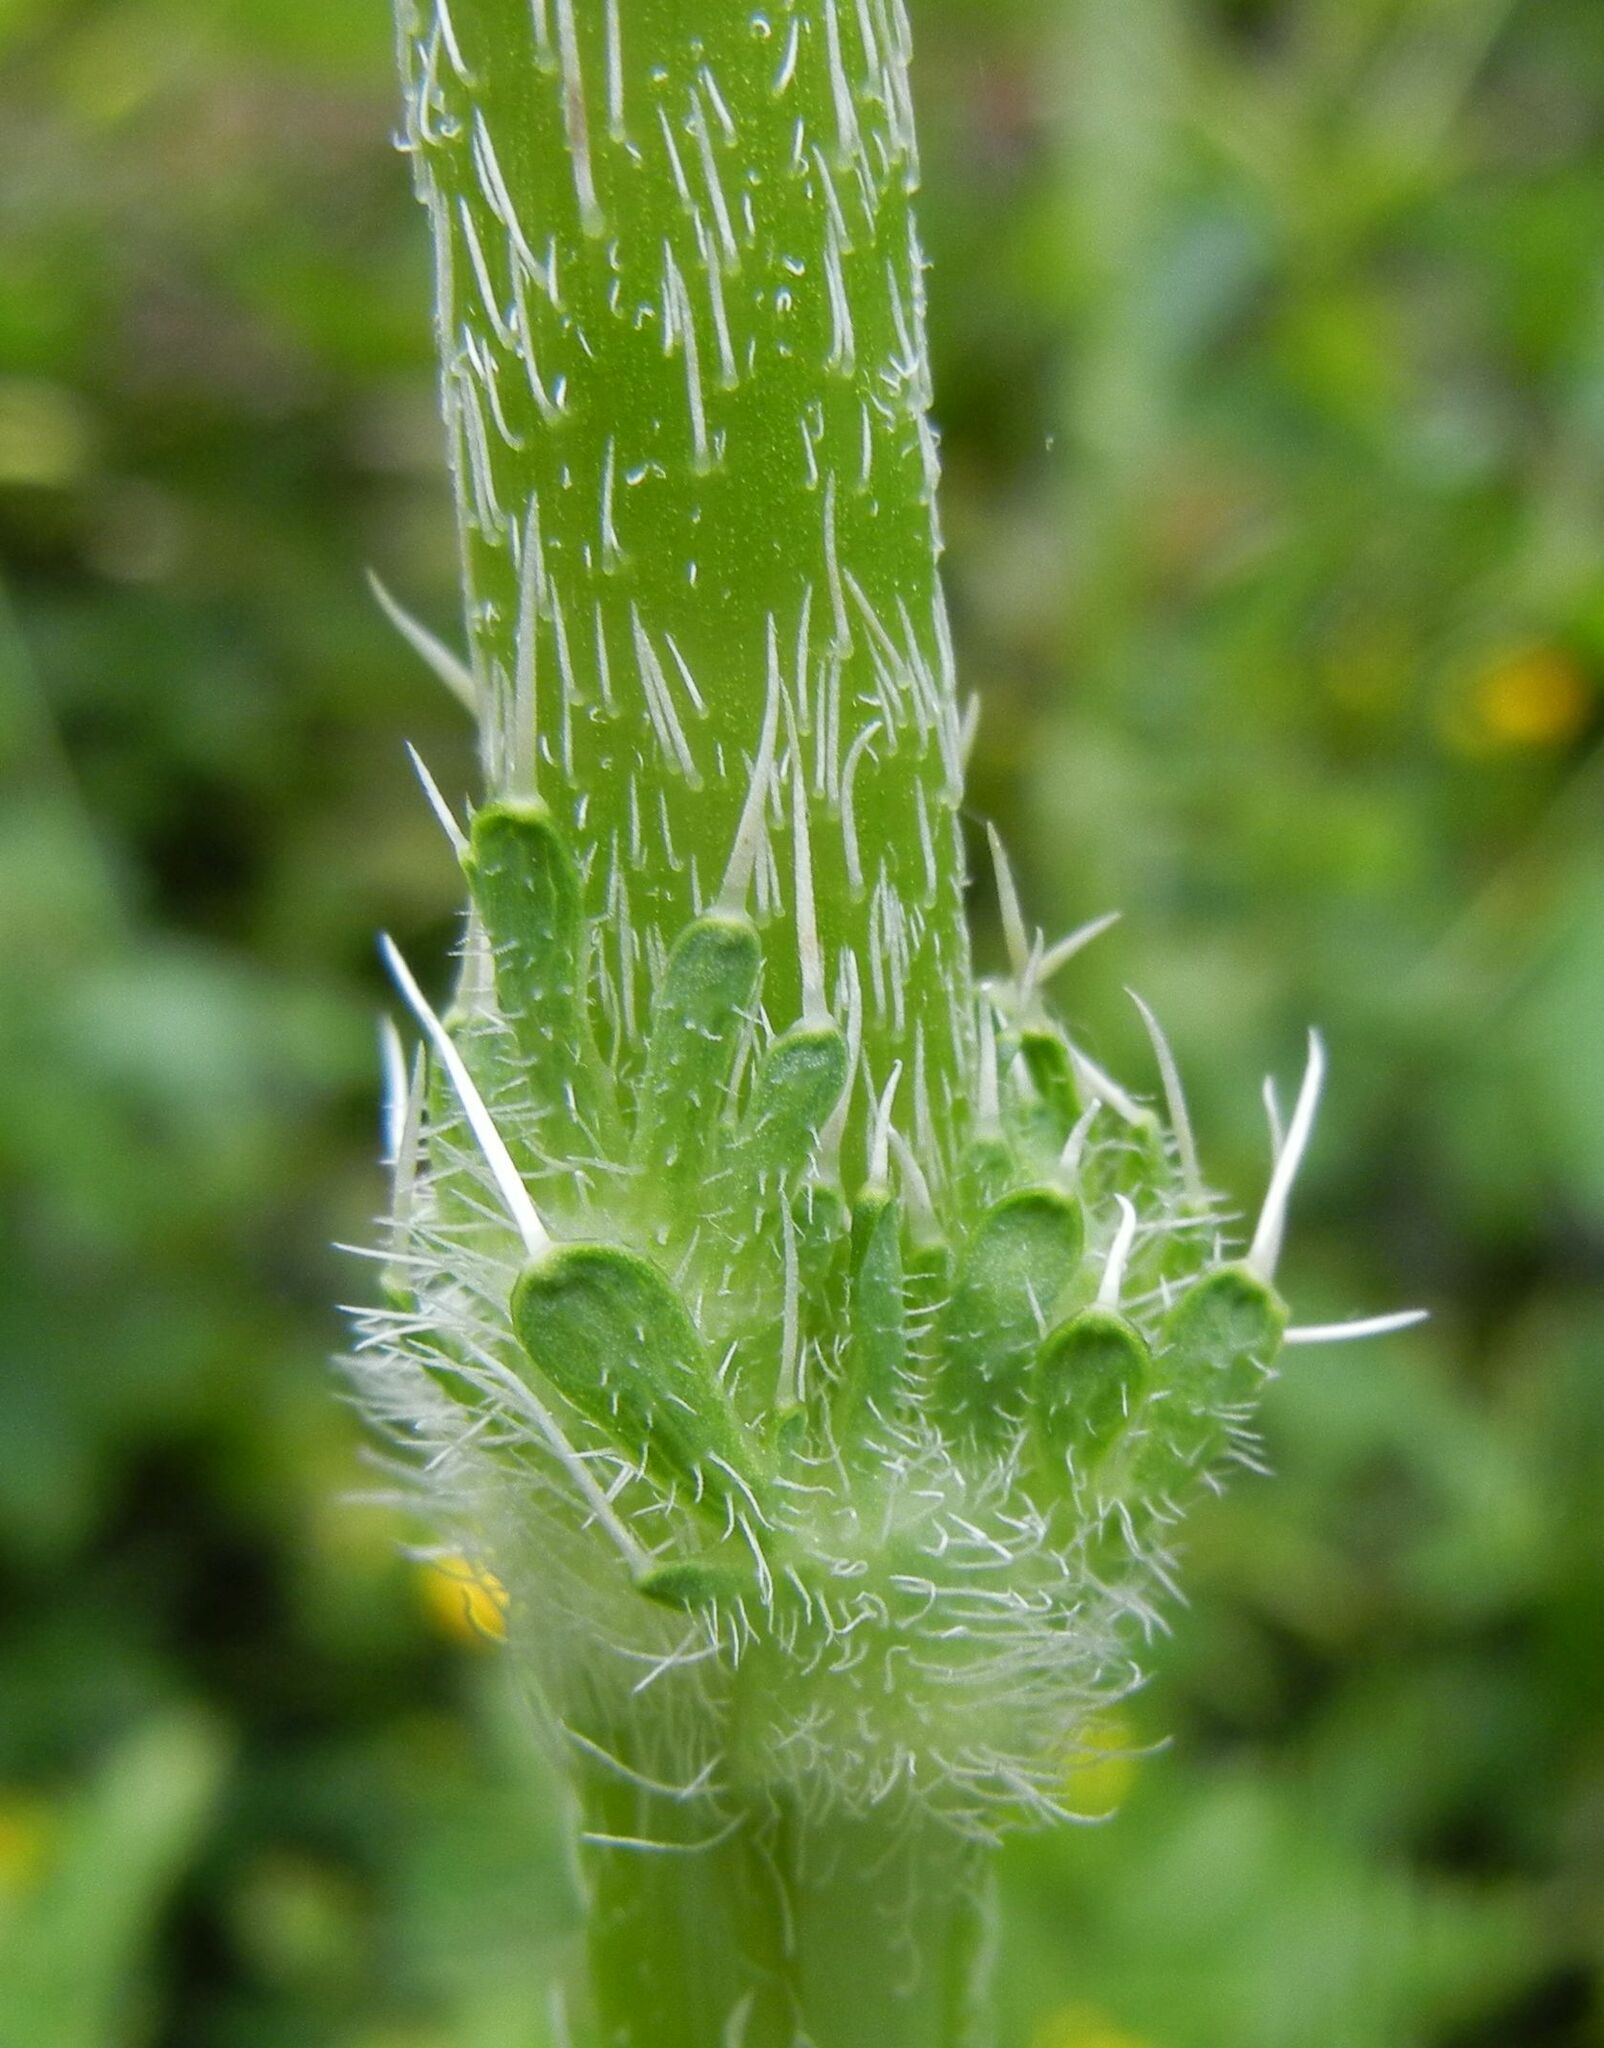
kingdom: Plantae
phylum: Tracheophyta
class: Magnoliopsida
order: Ranunculales
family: Papaveraceae
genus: Papaver
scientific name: Papaver orientale
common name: Oriental poppy
